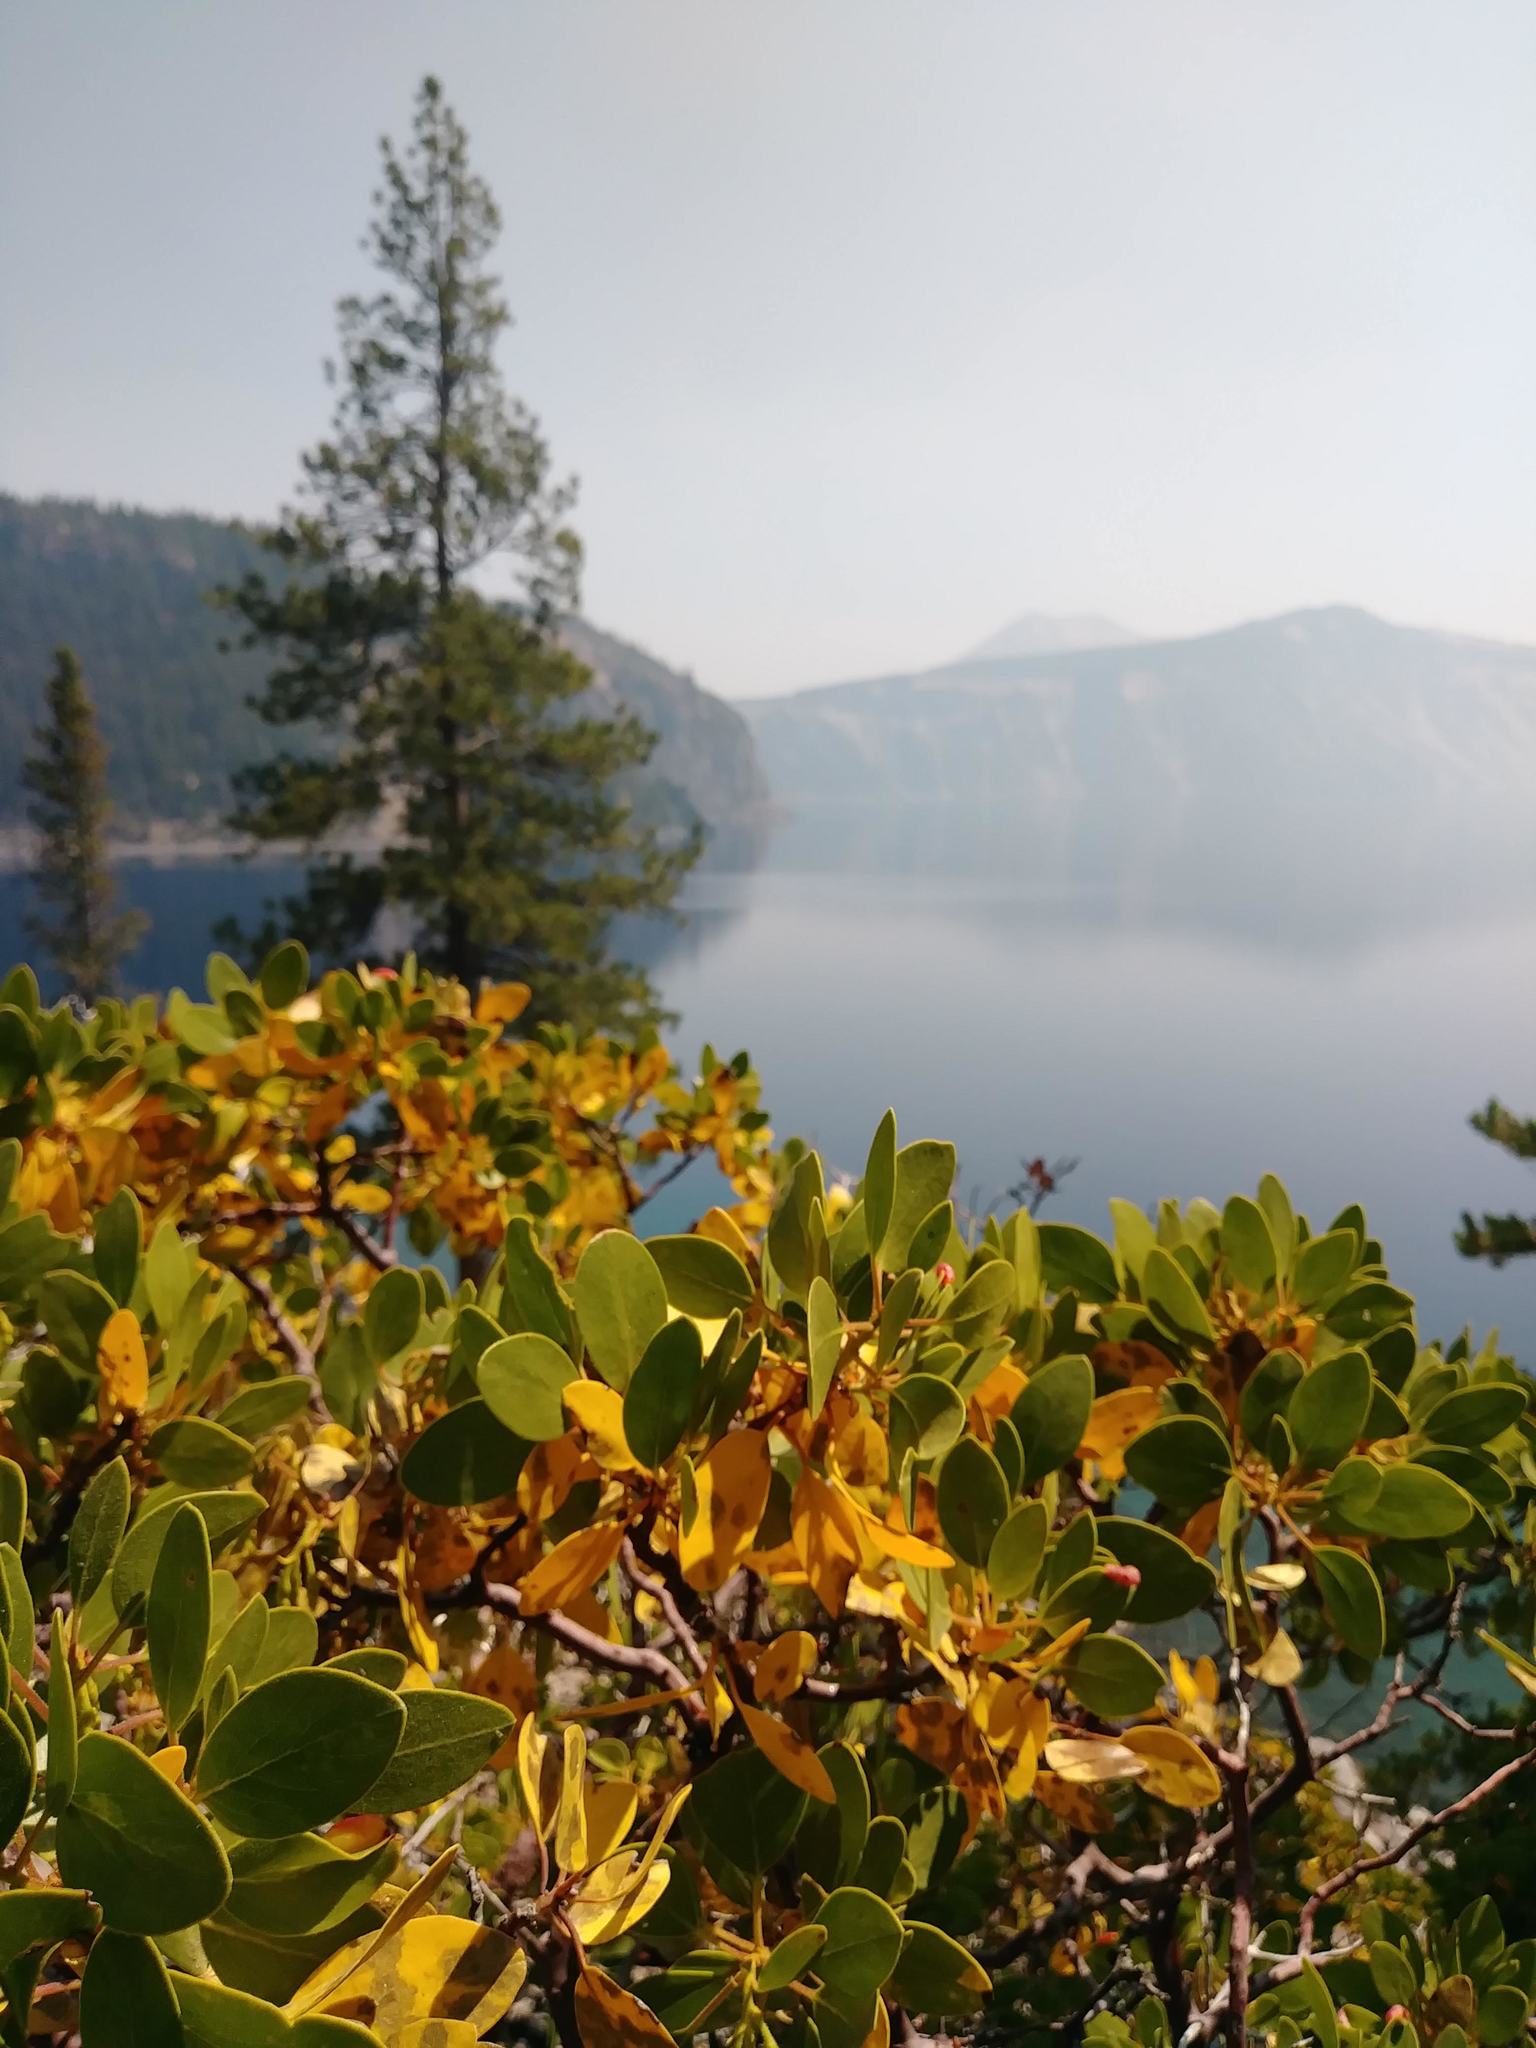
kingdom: Plantae
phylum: Tracheophyta
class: Magnoliopsida
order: Ericales
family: Ericaceae
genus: Arctostaphylos
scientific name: Arctostaphylos patula
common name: Green-leaf manzanita
